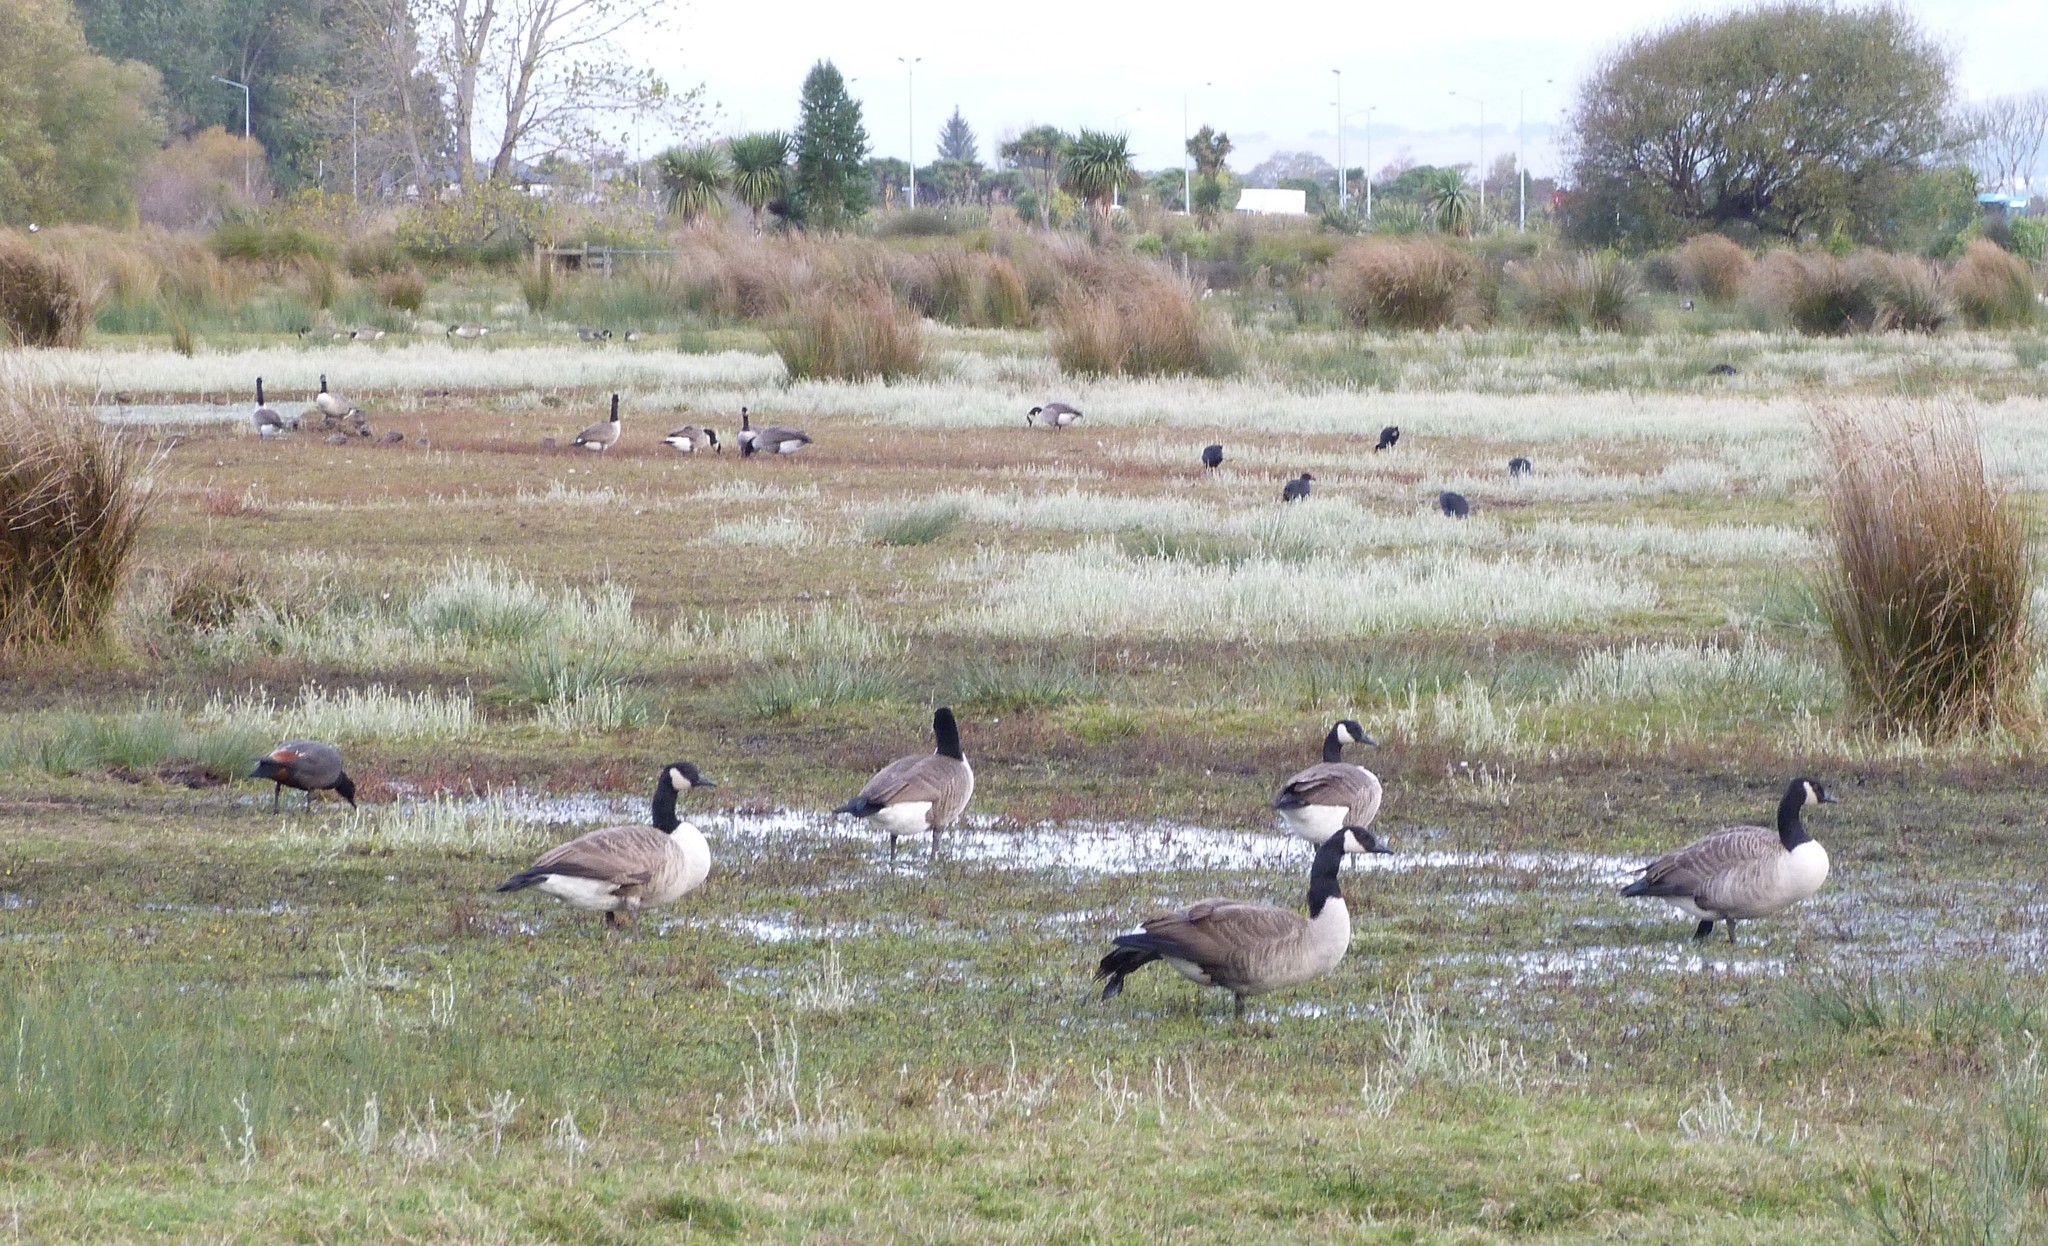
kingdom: Animalia
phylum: Chordata
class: Aves
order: Anseriformes
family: Anatidae
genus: Branta
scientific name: Branta canadensis
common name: Canada goose
